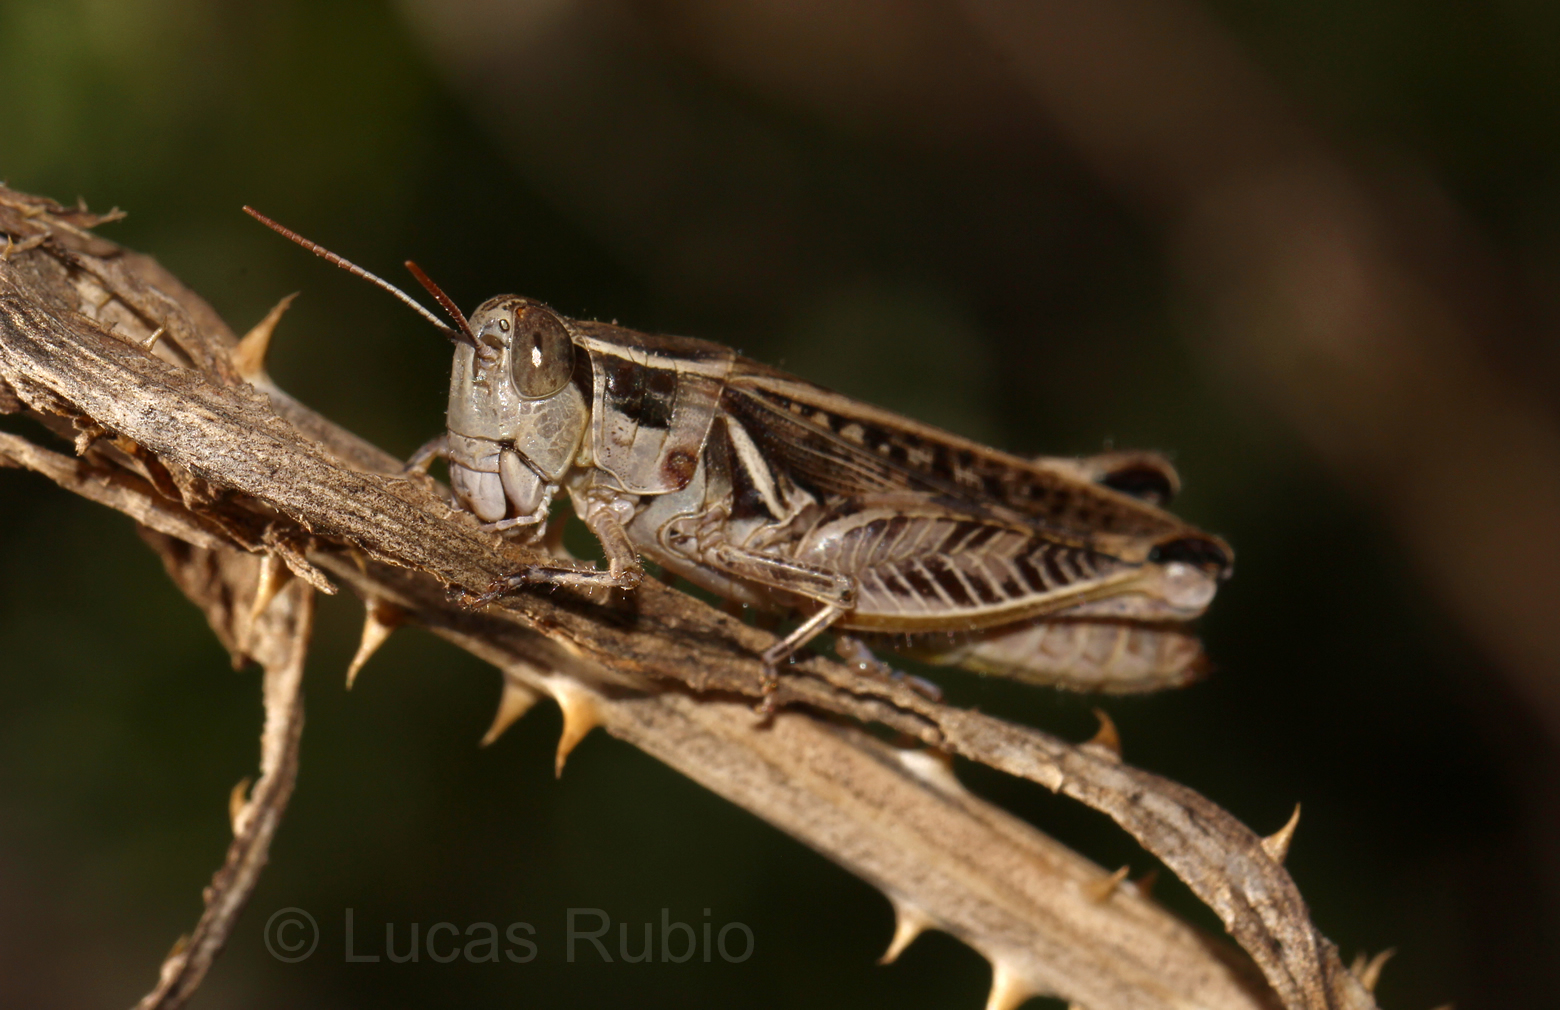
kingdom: Animalia
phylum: Arthropoda
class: Insecta
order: Orthoptera
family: Acrididae
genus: Dichroplus
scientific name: Dichroplus pratensis
